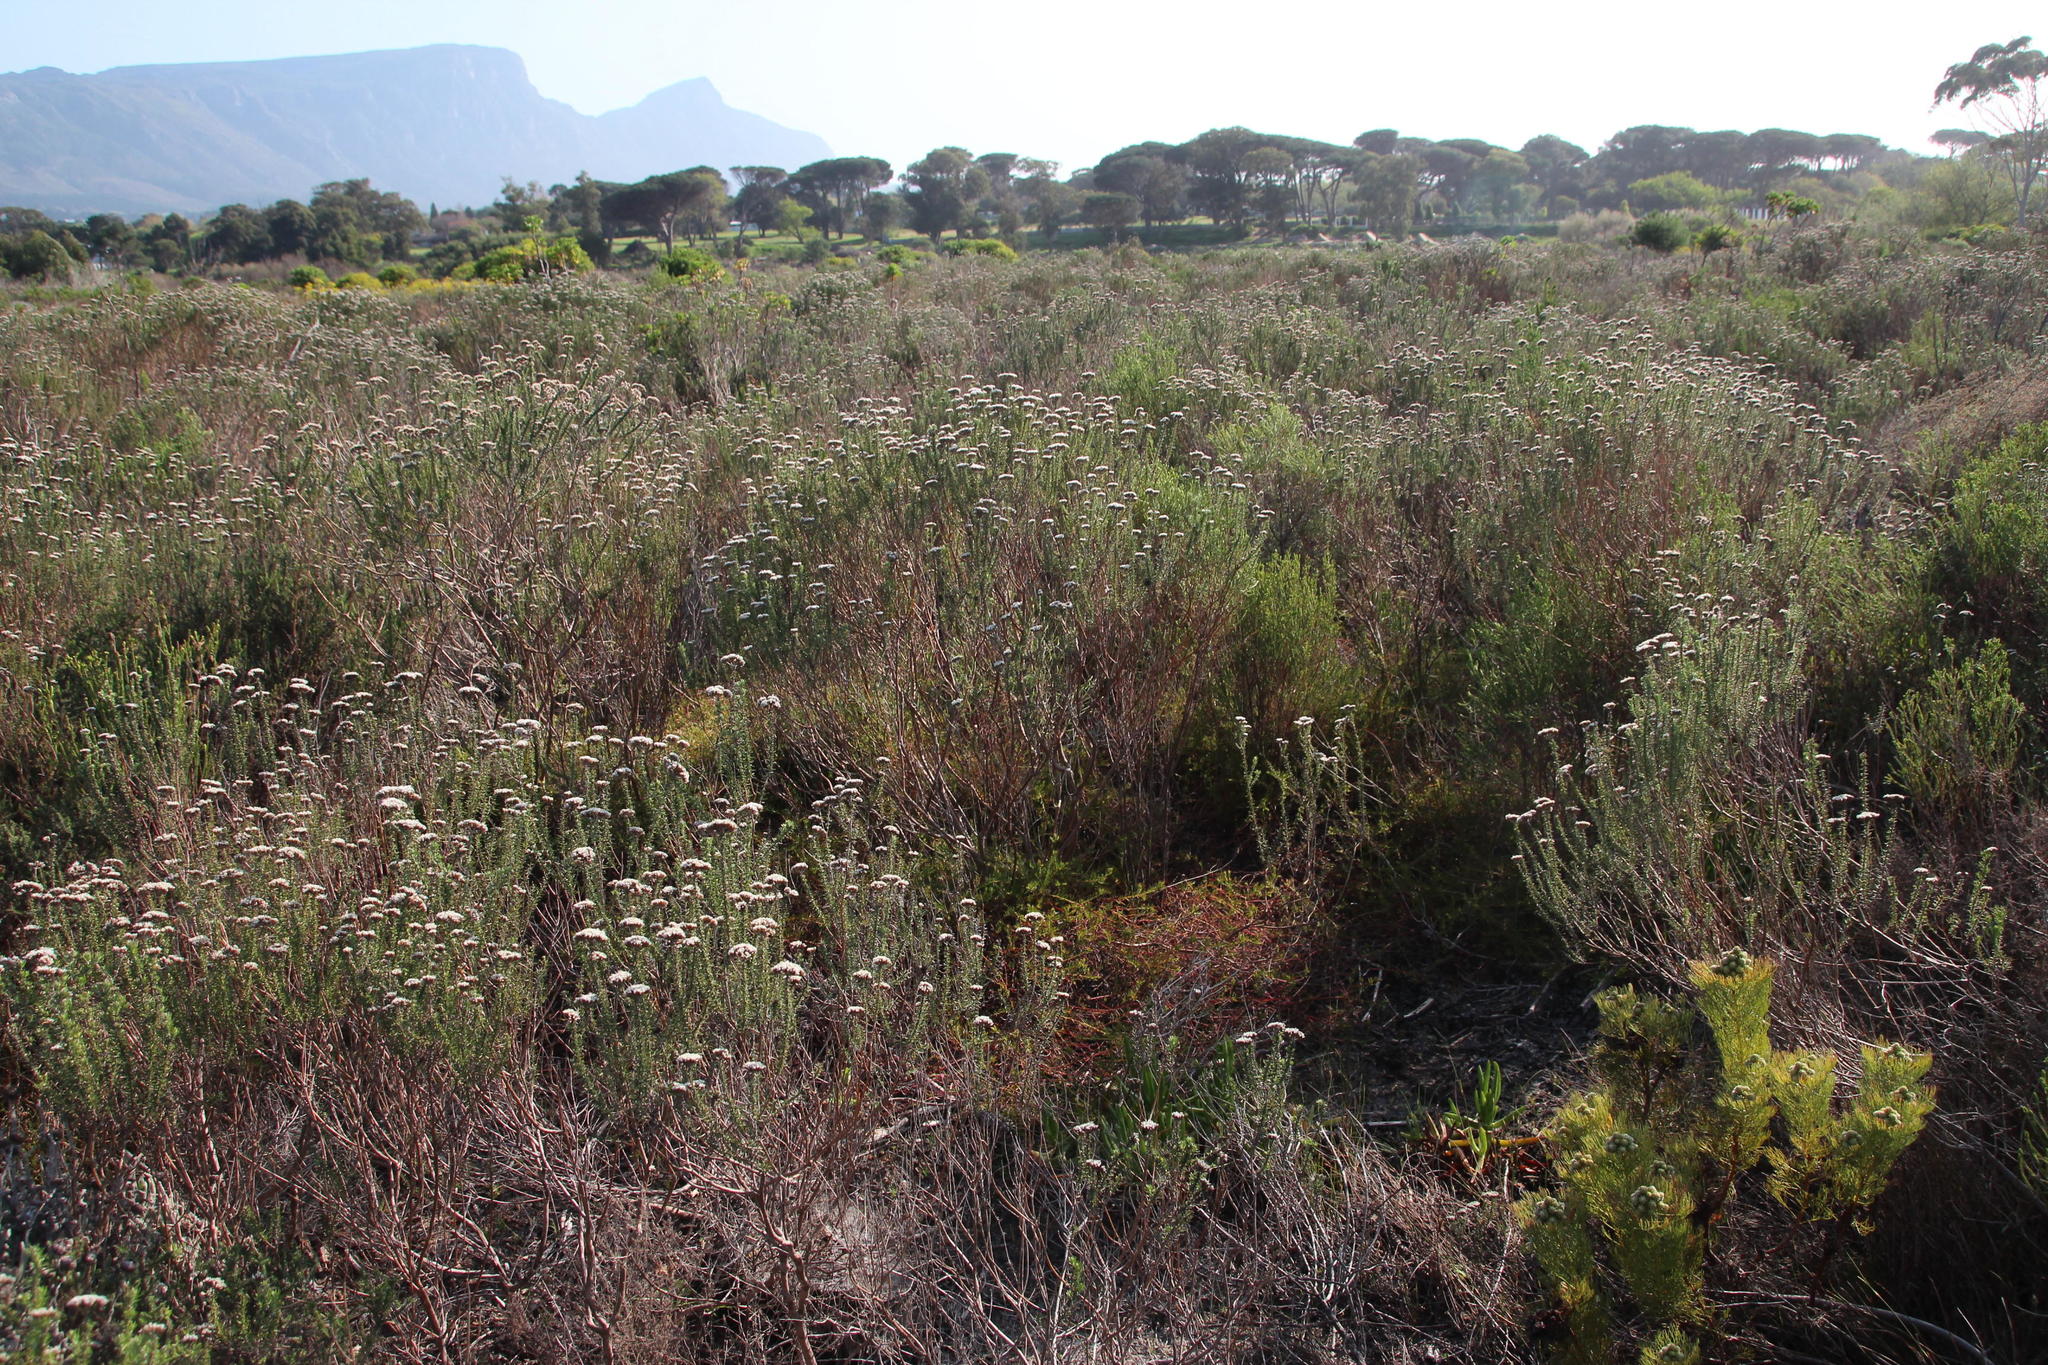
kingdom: Plantae
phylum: Tracheophyta
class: Magnoliopsida
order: Proteales
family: Proteaceae
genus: Diastella
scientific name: Diastella proteoides
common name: Flats silkypuff
